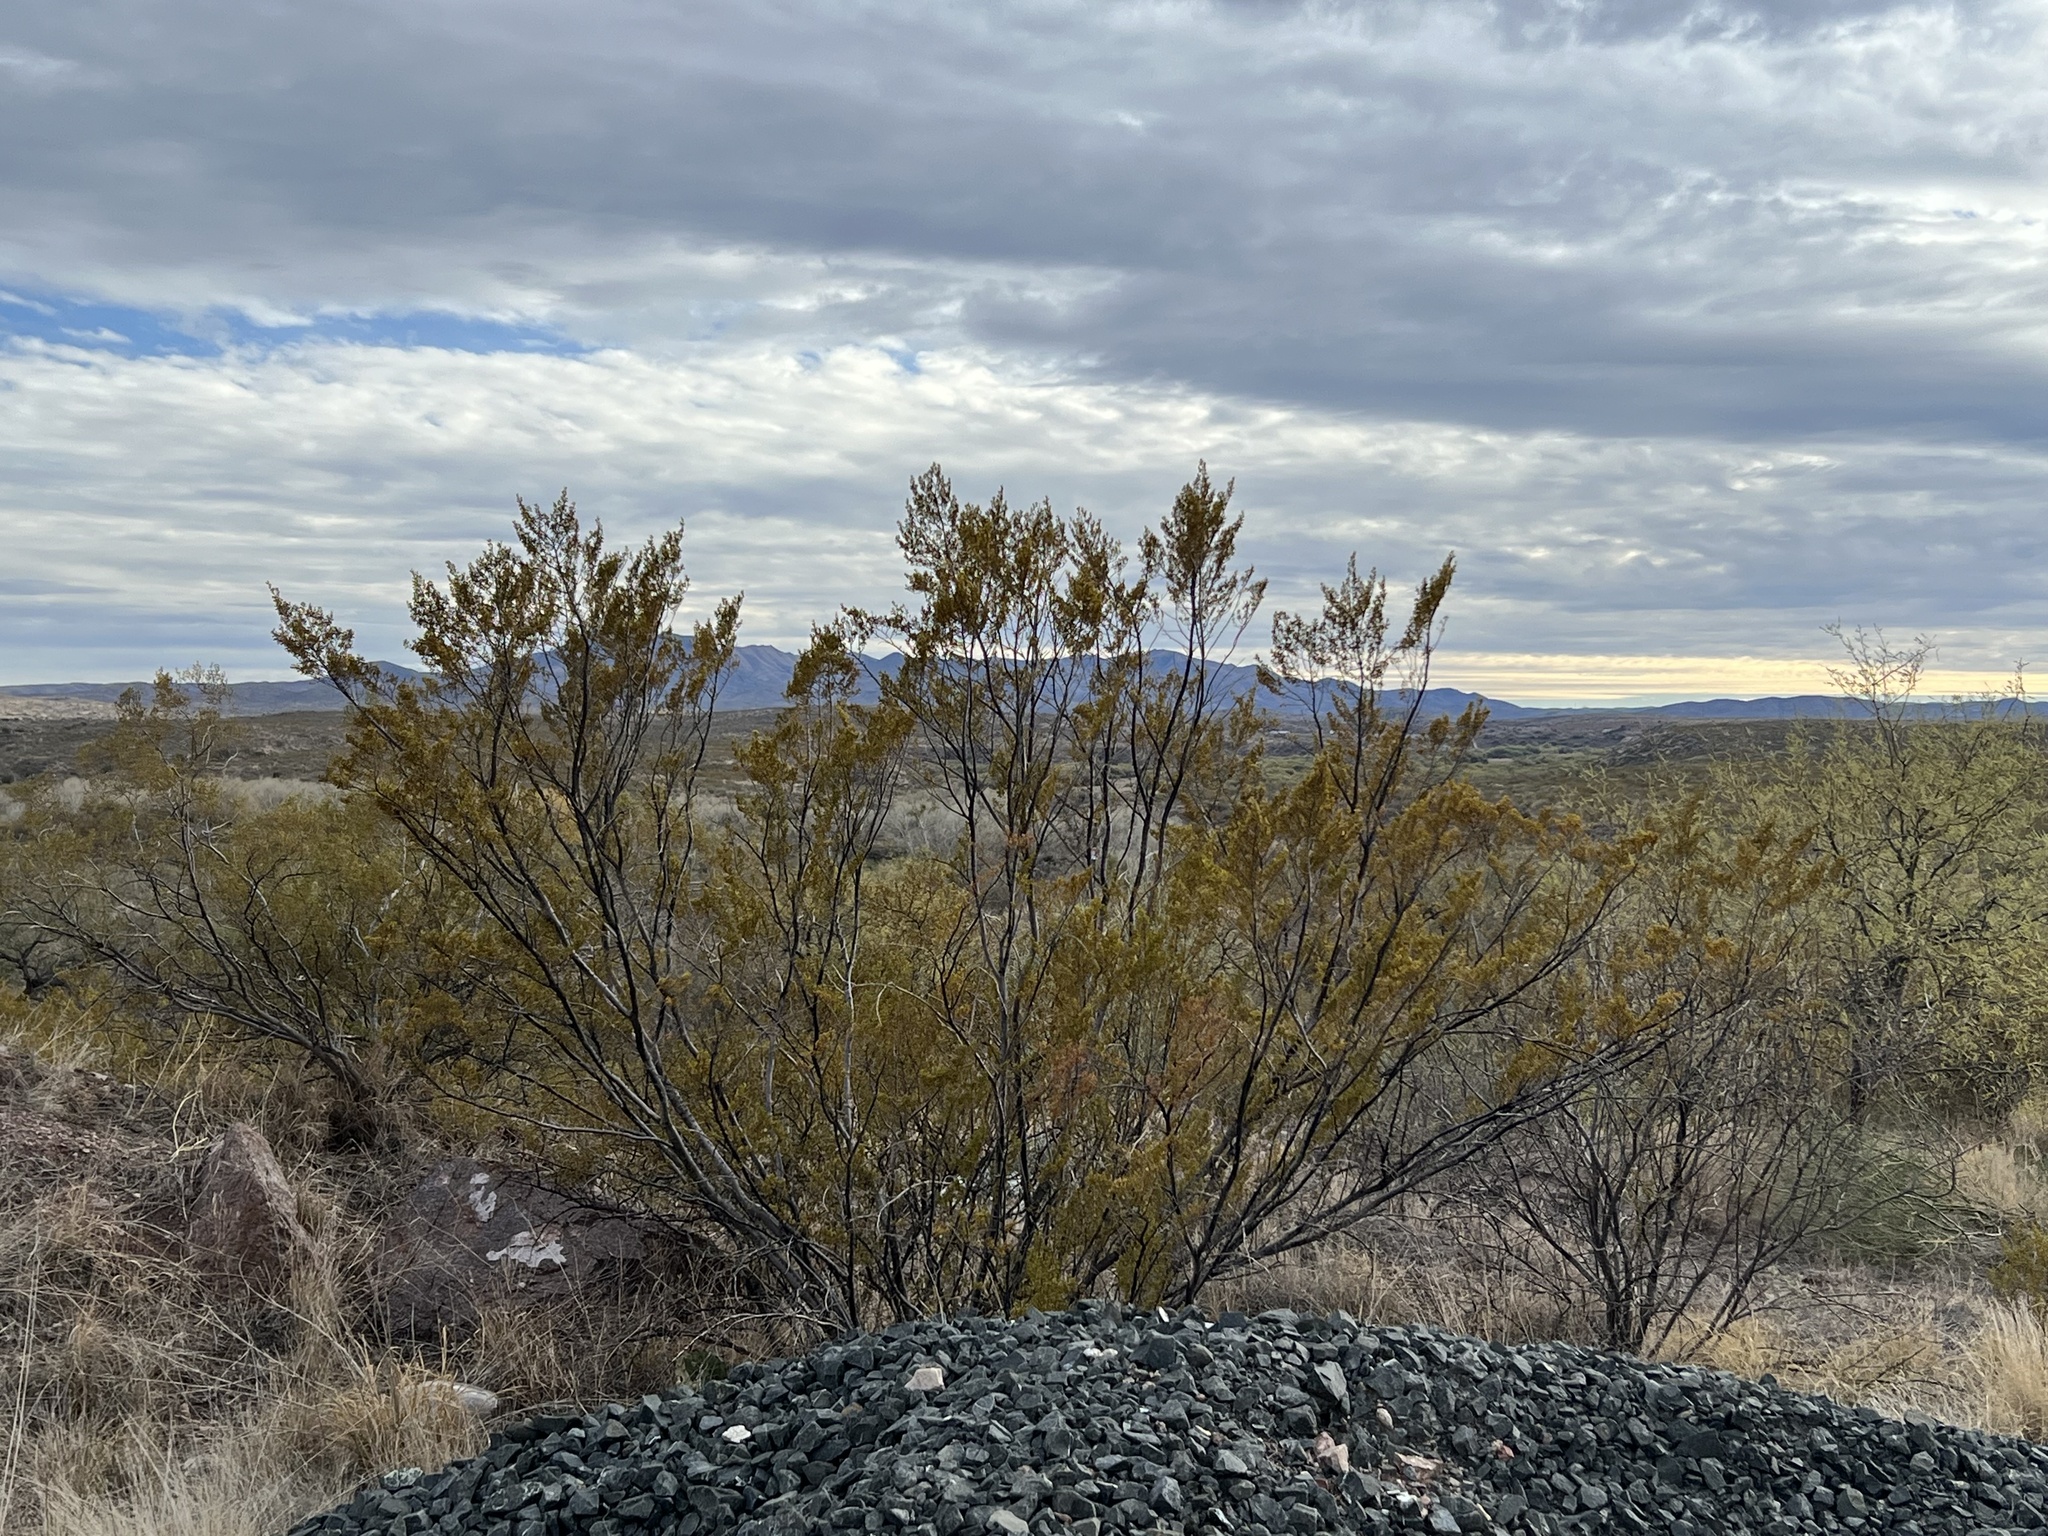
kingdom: Plantae
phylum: Tracheophyta
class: Magnoliopsida
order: Zygophyllales
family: Zygophyllaceae
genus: Larrea
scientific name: Larrea tridentata
